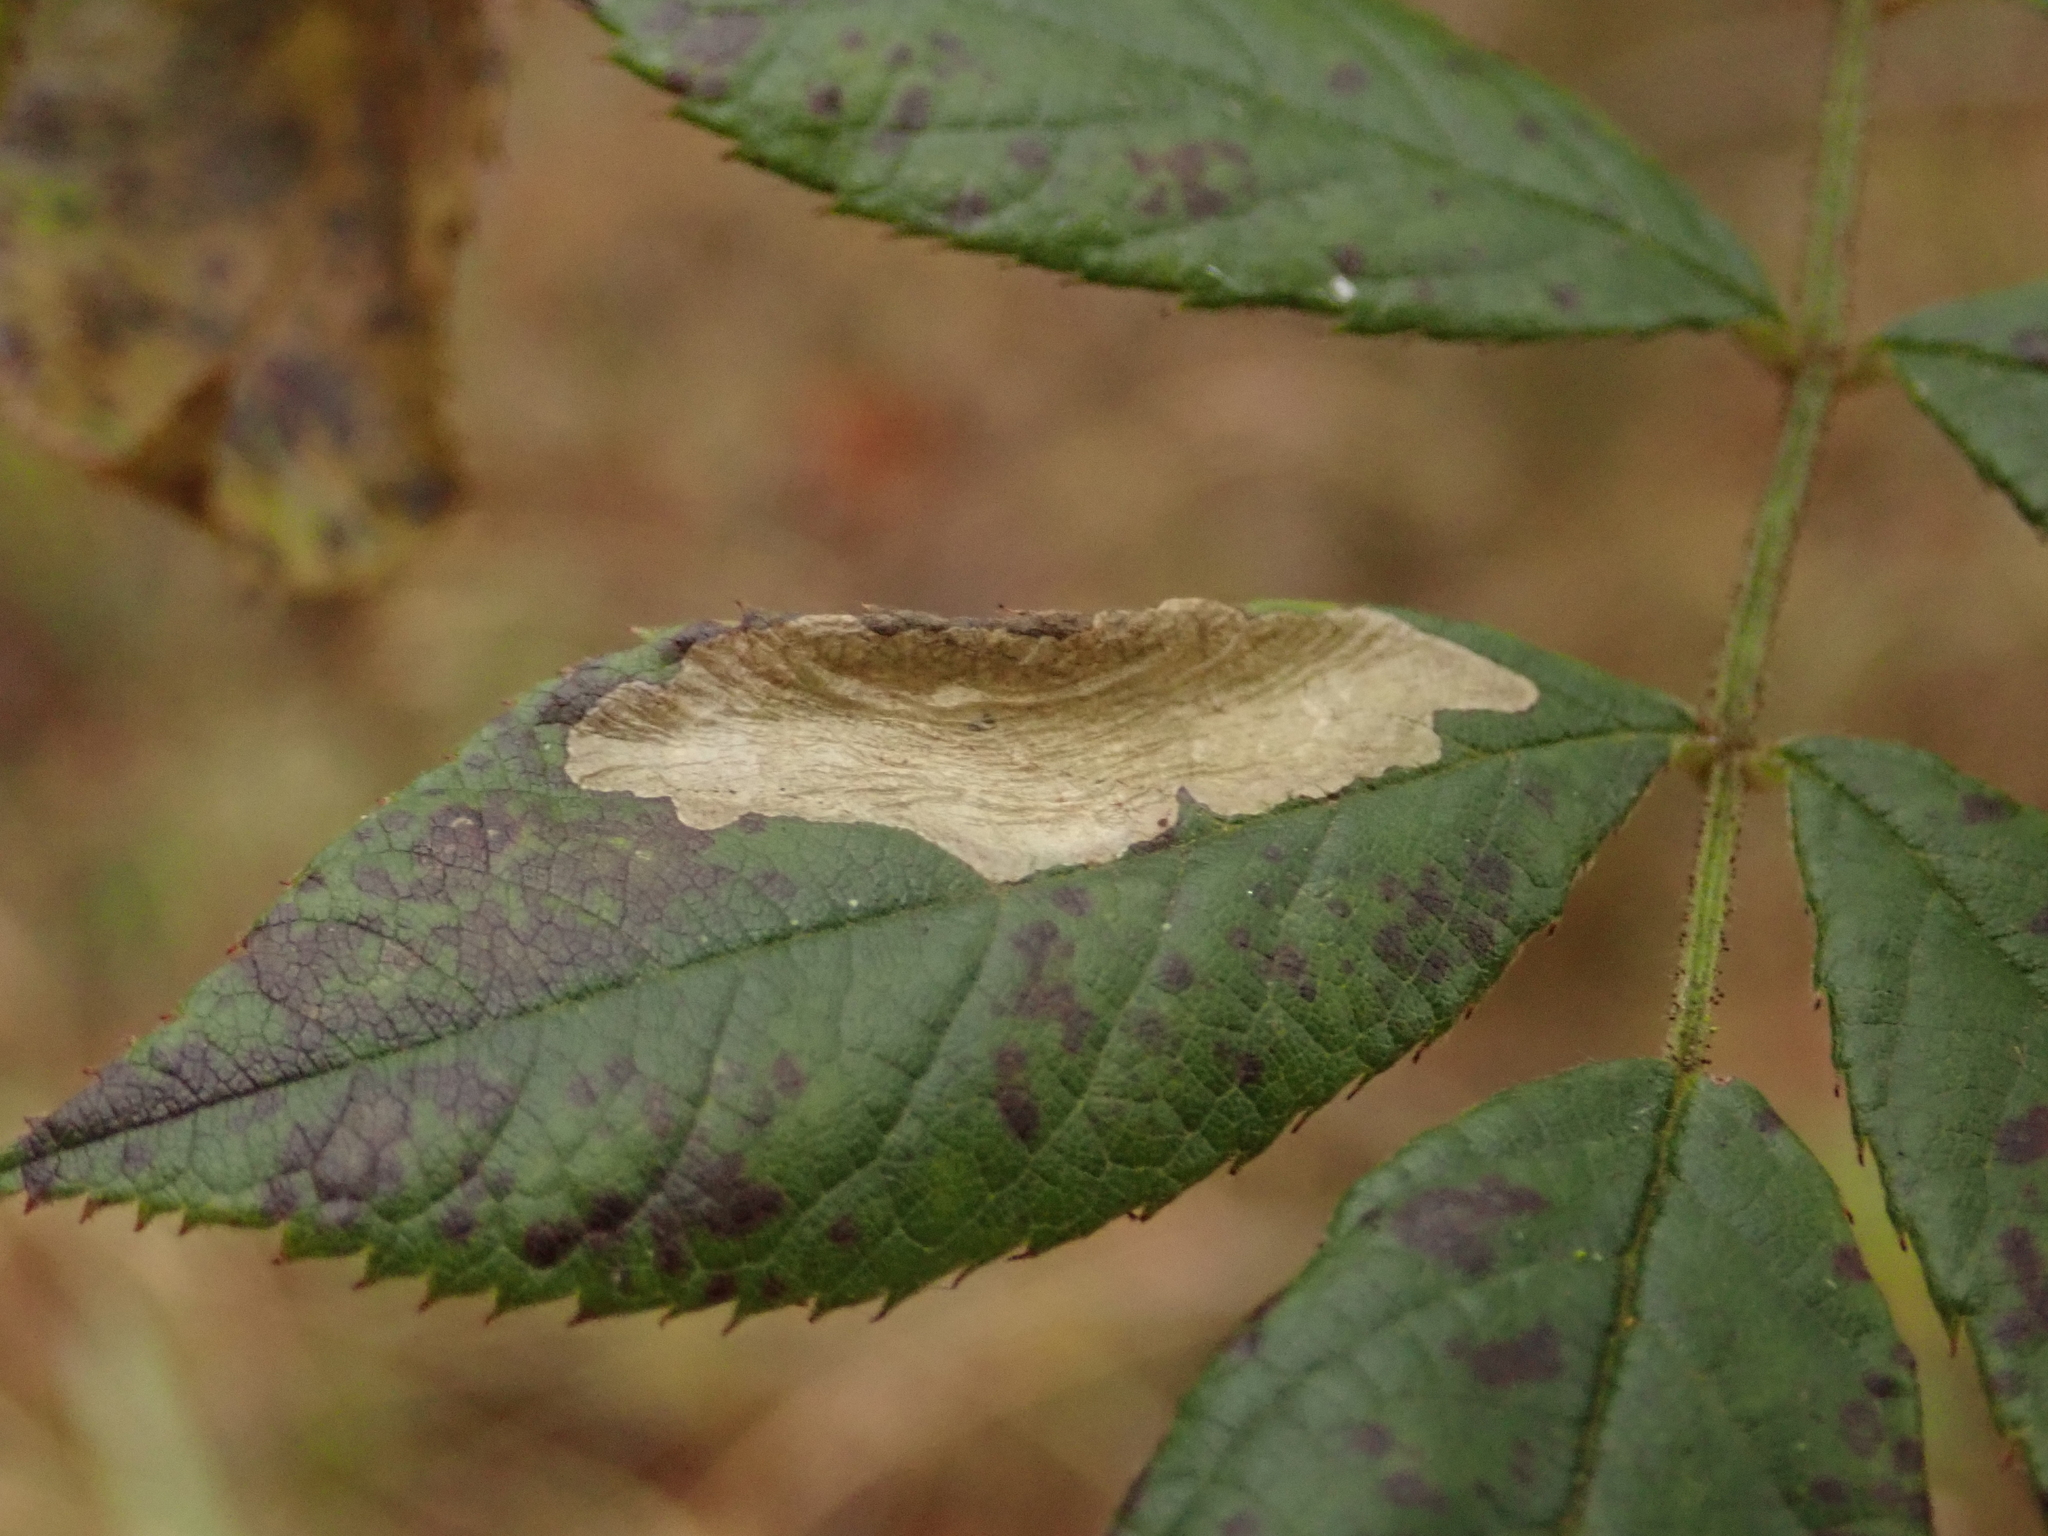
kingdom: Animalia
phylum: Arthropoda
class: Insecta
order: Lepidoptera
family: Tischeriidae
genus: Coptotriche
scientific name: Coptotriche angusticolella
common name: Rose carl
